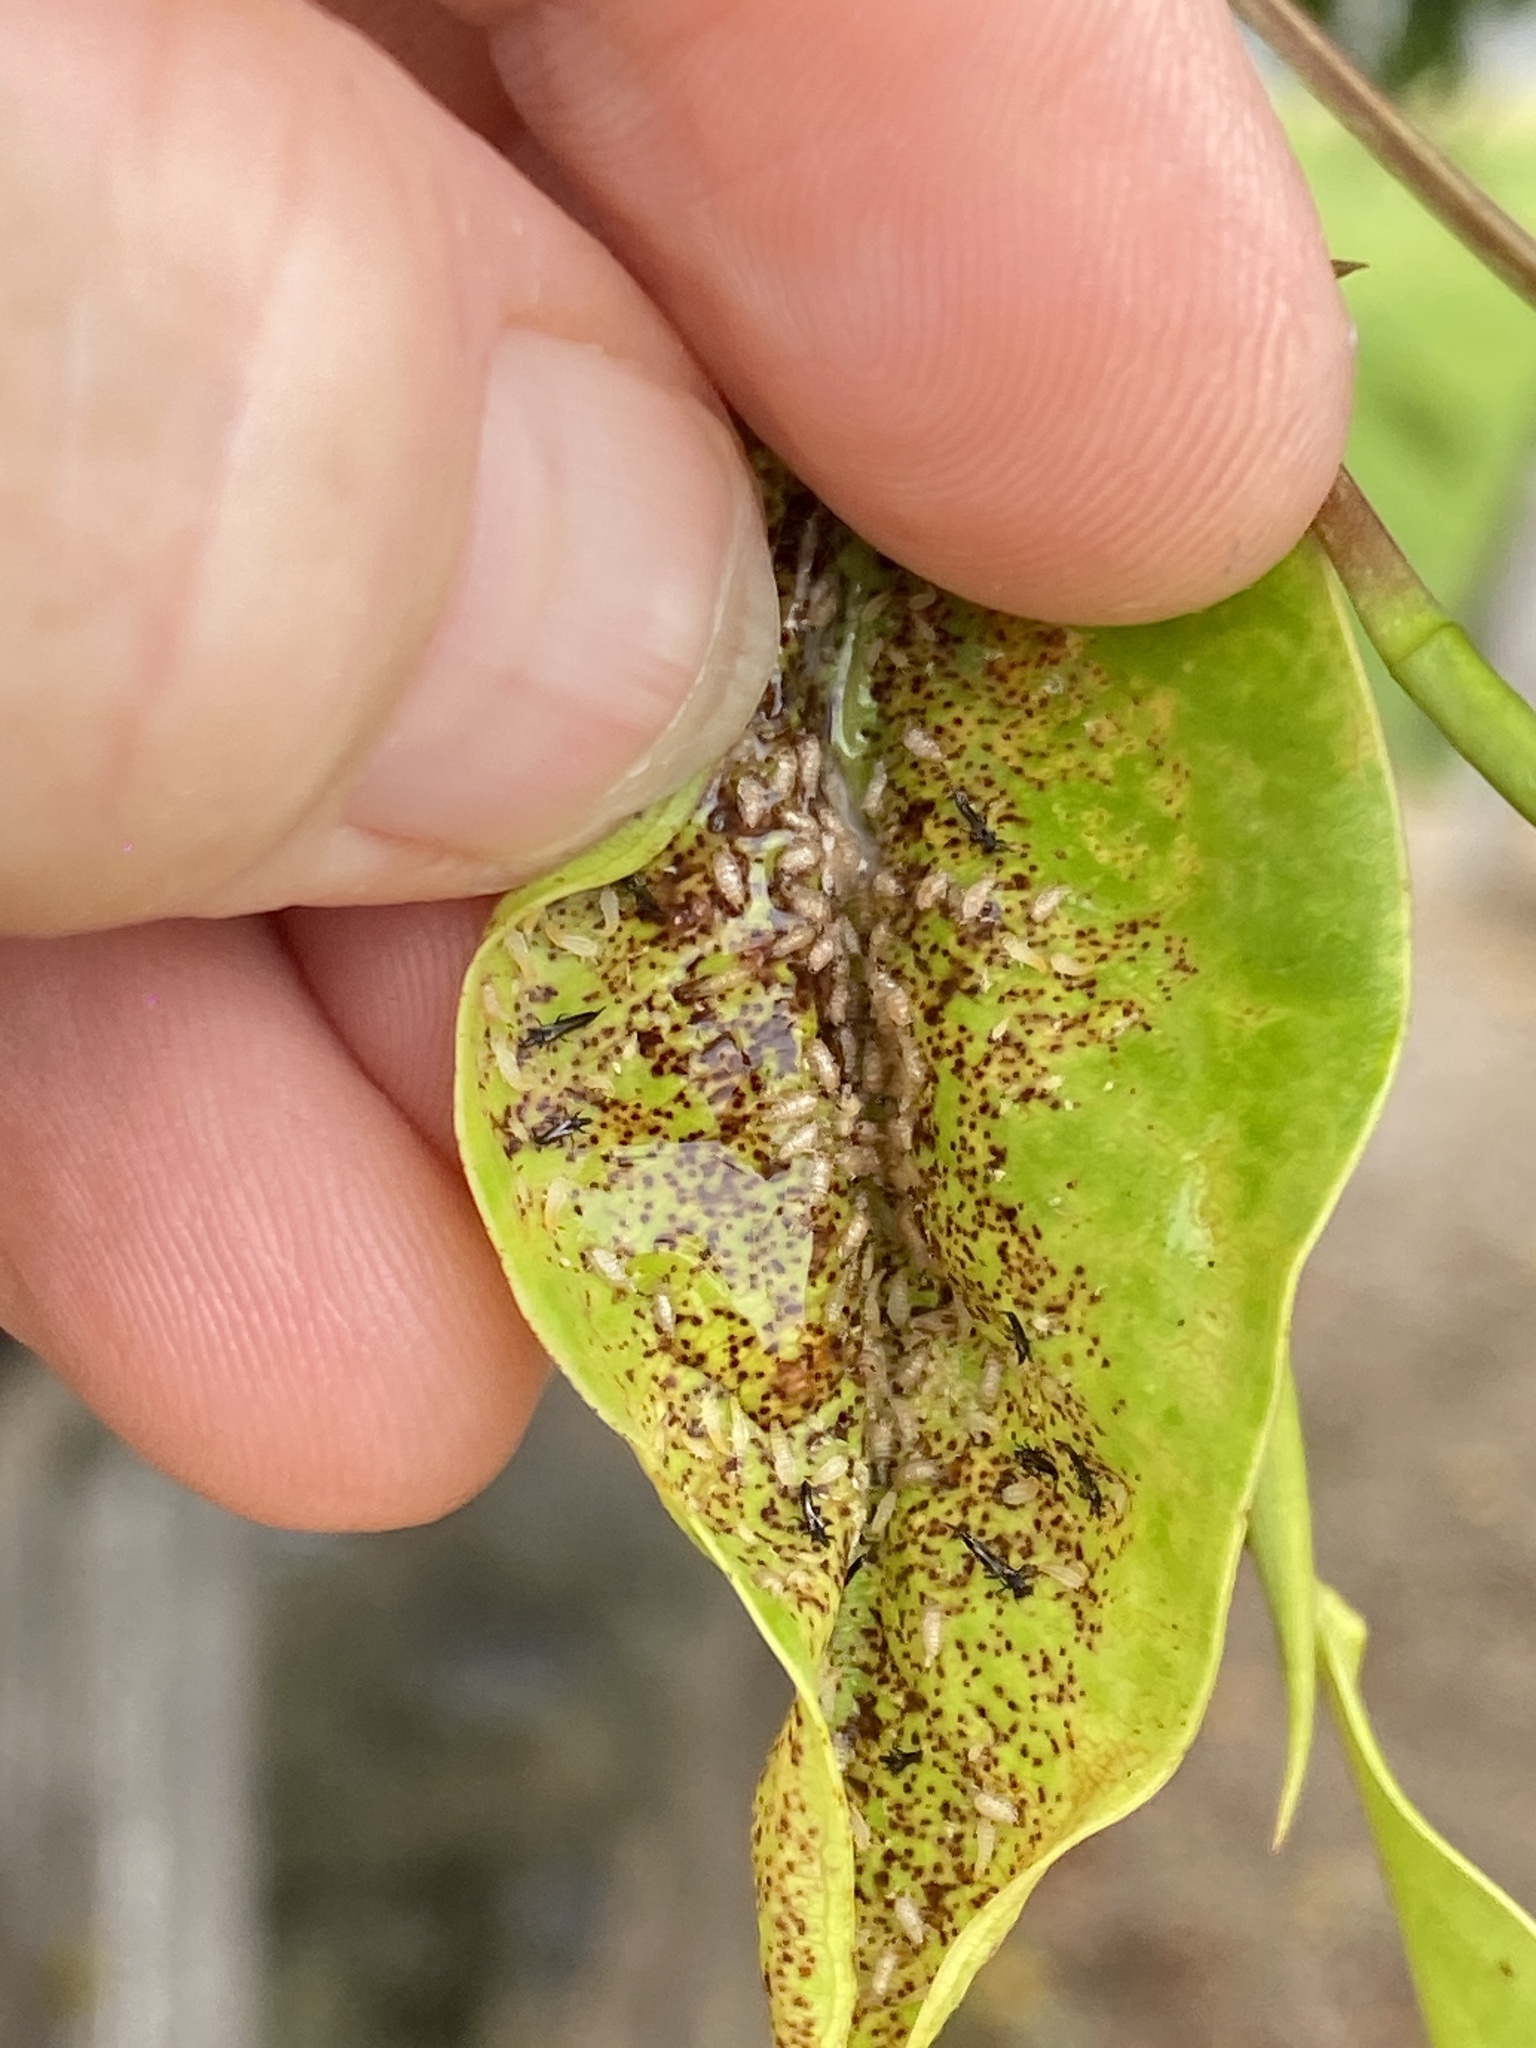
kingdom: Animalia
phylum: Arthropoda
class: Insecta
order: Thysanoptera
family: Phlaeothripidae
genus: Gynaikothrips
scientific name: Gynaikothrips uzeli
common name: Leaf-gall thrips
